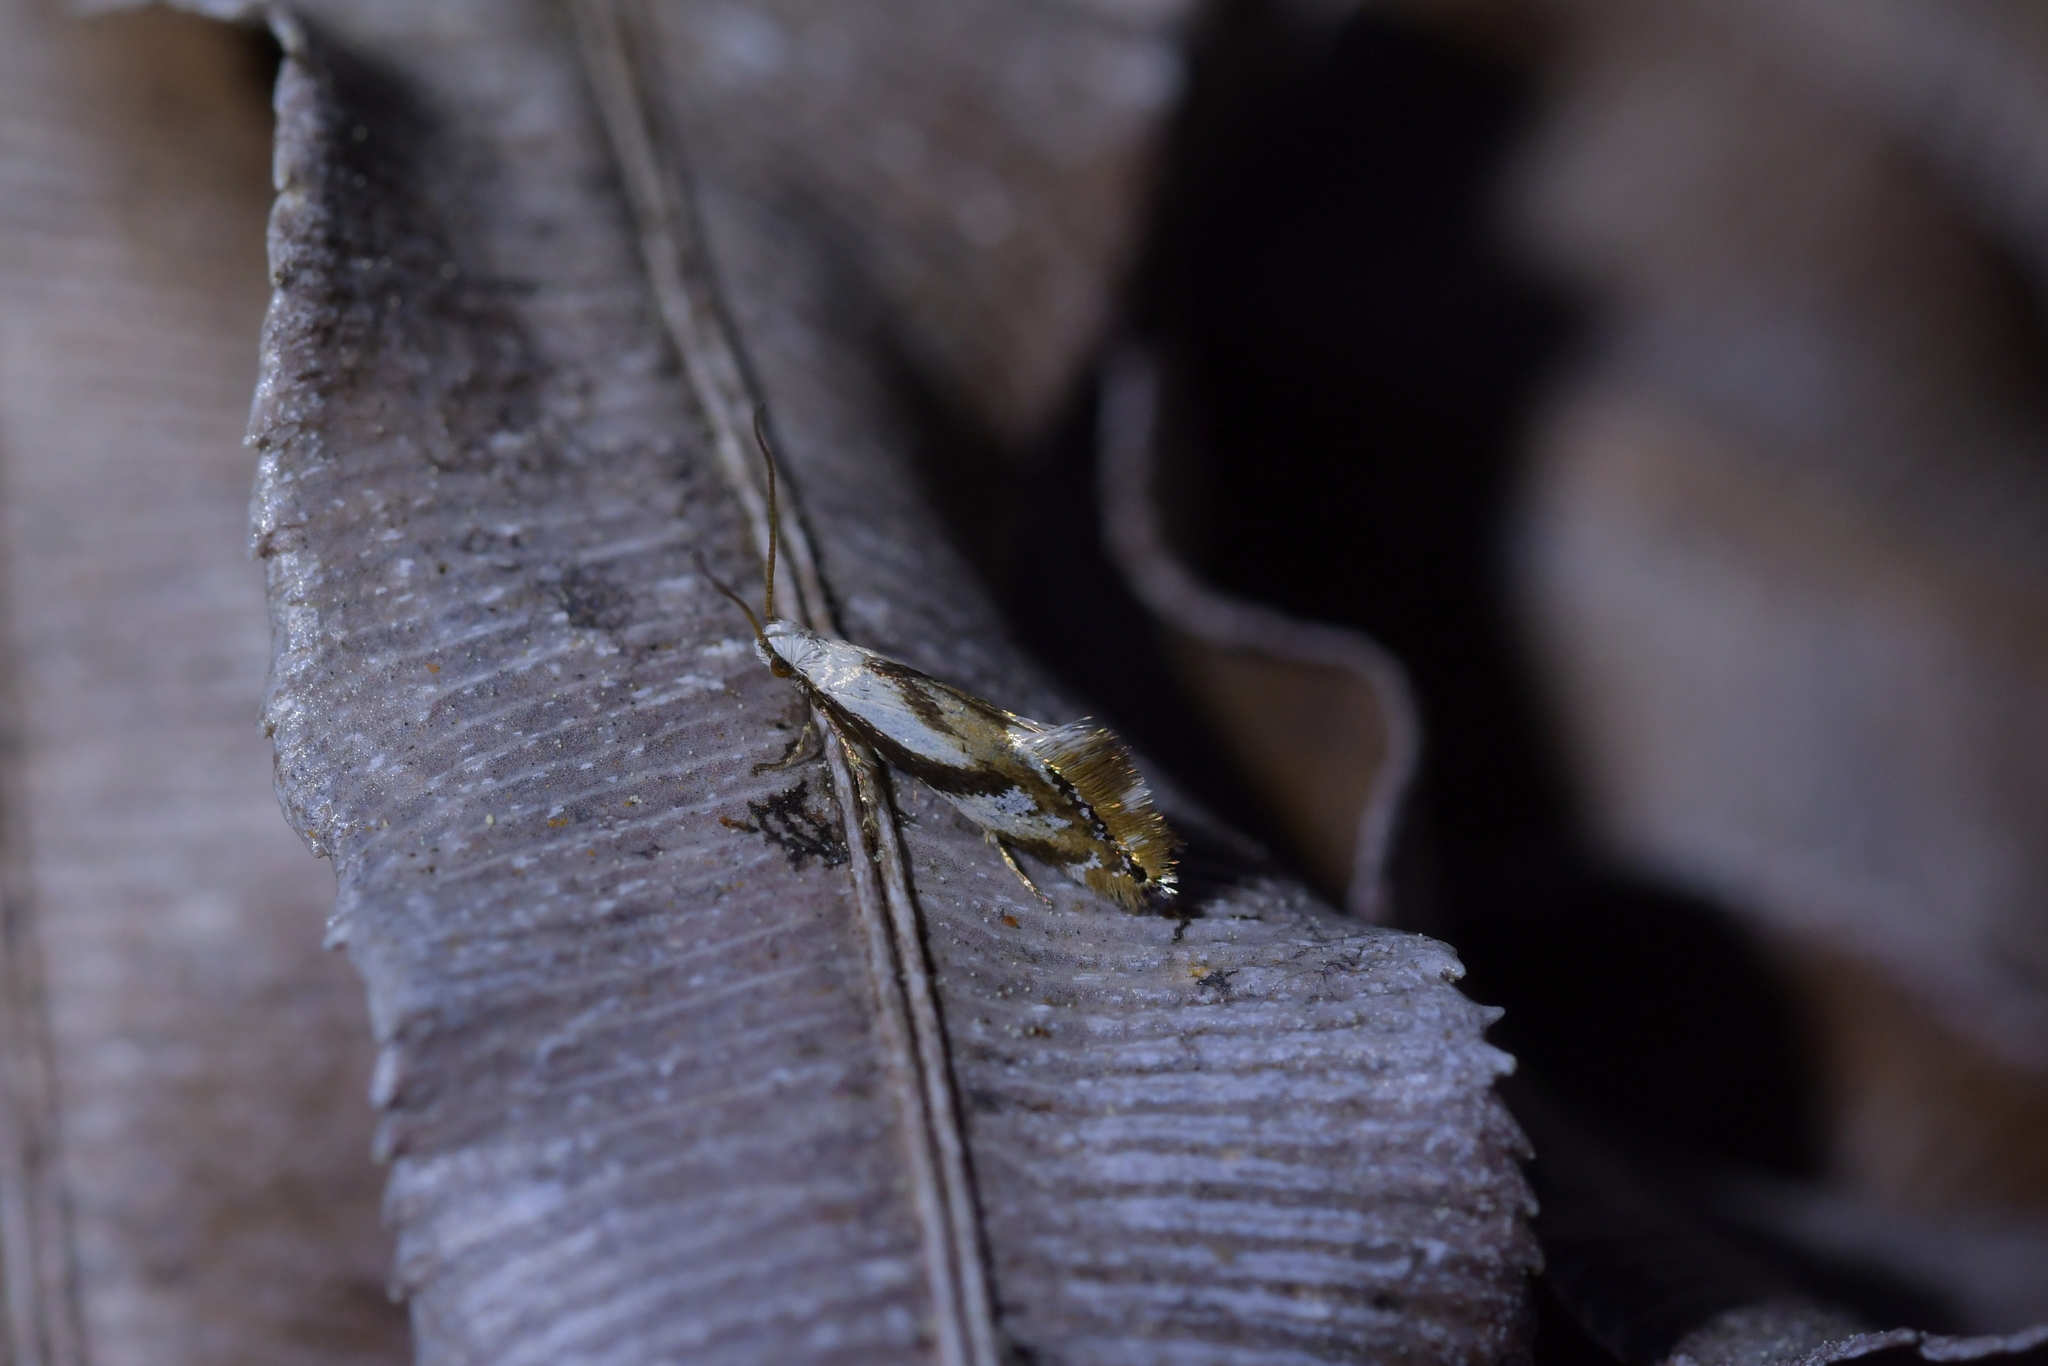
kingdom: Animalia
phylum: Arthropoda
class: Insecta
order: Lepidoptera
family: Mnesarchaeidae
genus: Mnesarchella
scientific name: Mnesarchella acuta
